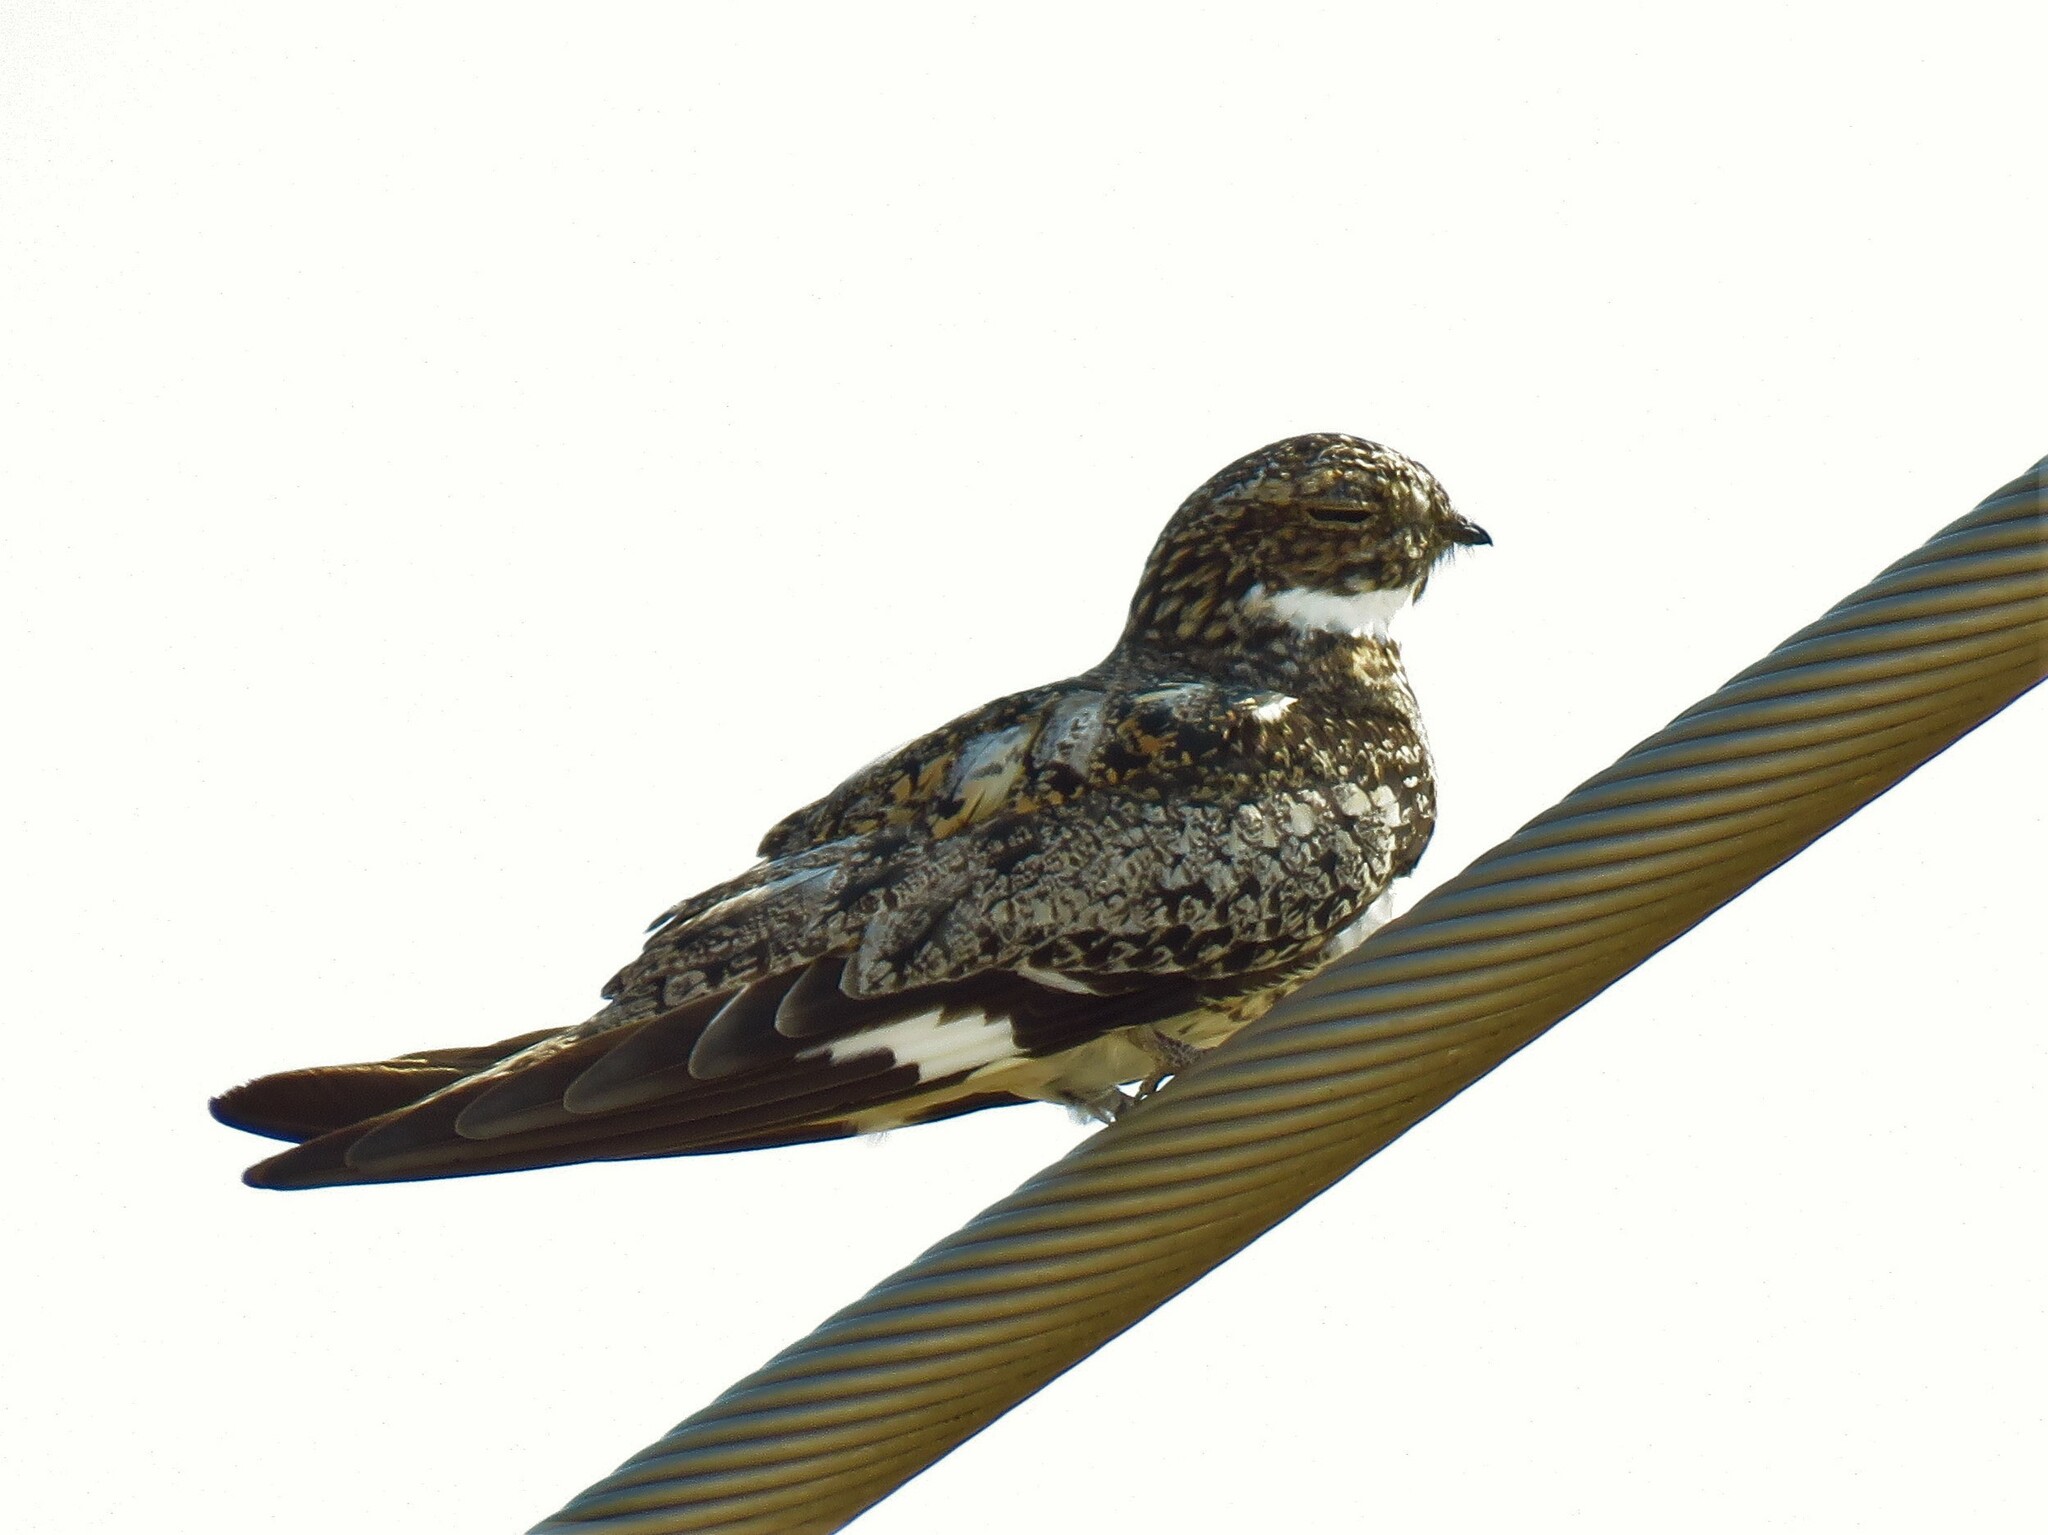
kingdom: Animalia
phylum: Chordata
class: Aves
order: Caprimulgiformes
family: Caprimulgidae
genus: Chordeiles
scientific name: Chordeiles minor
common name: Common nighthawk
